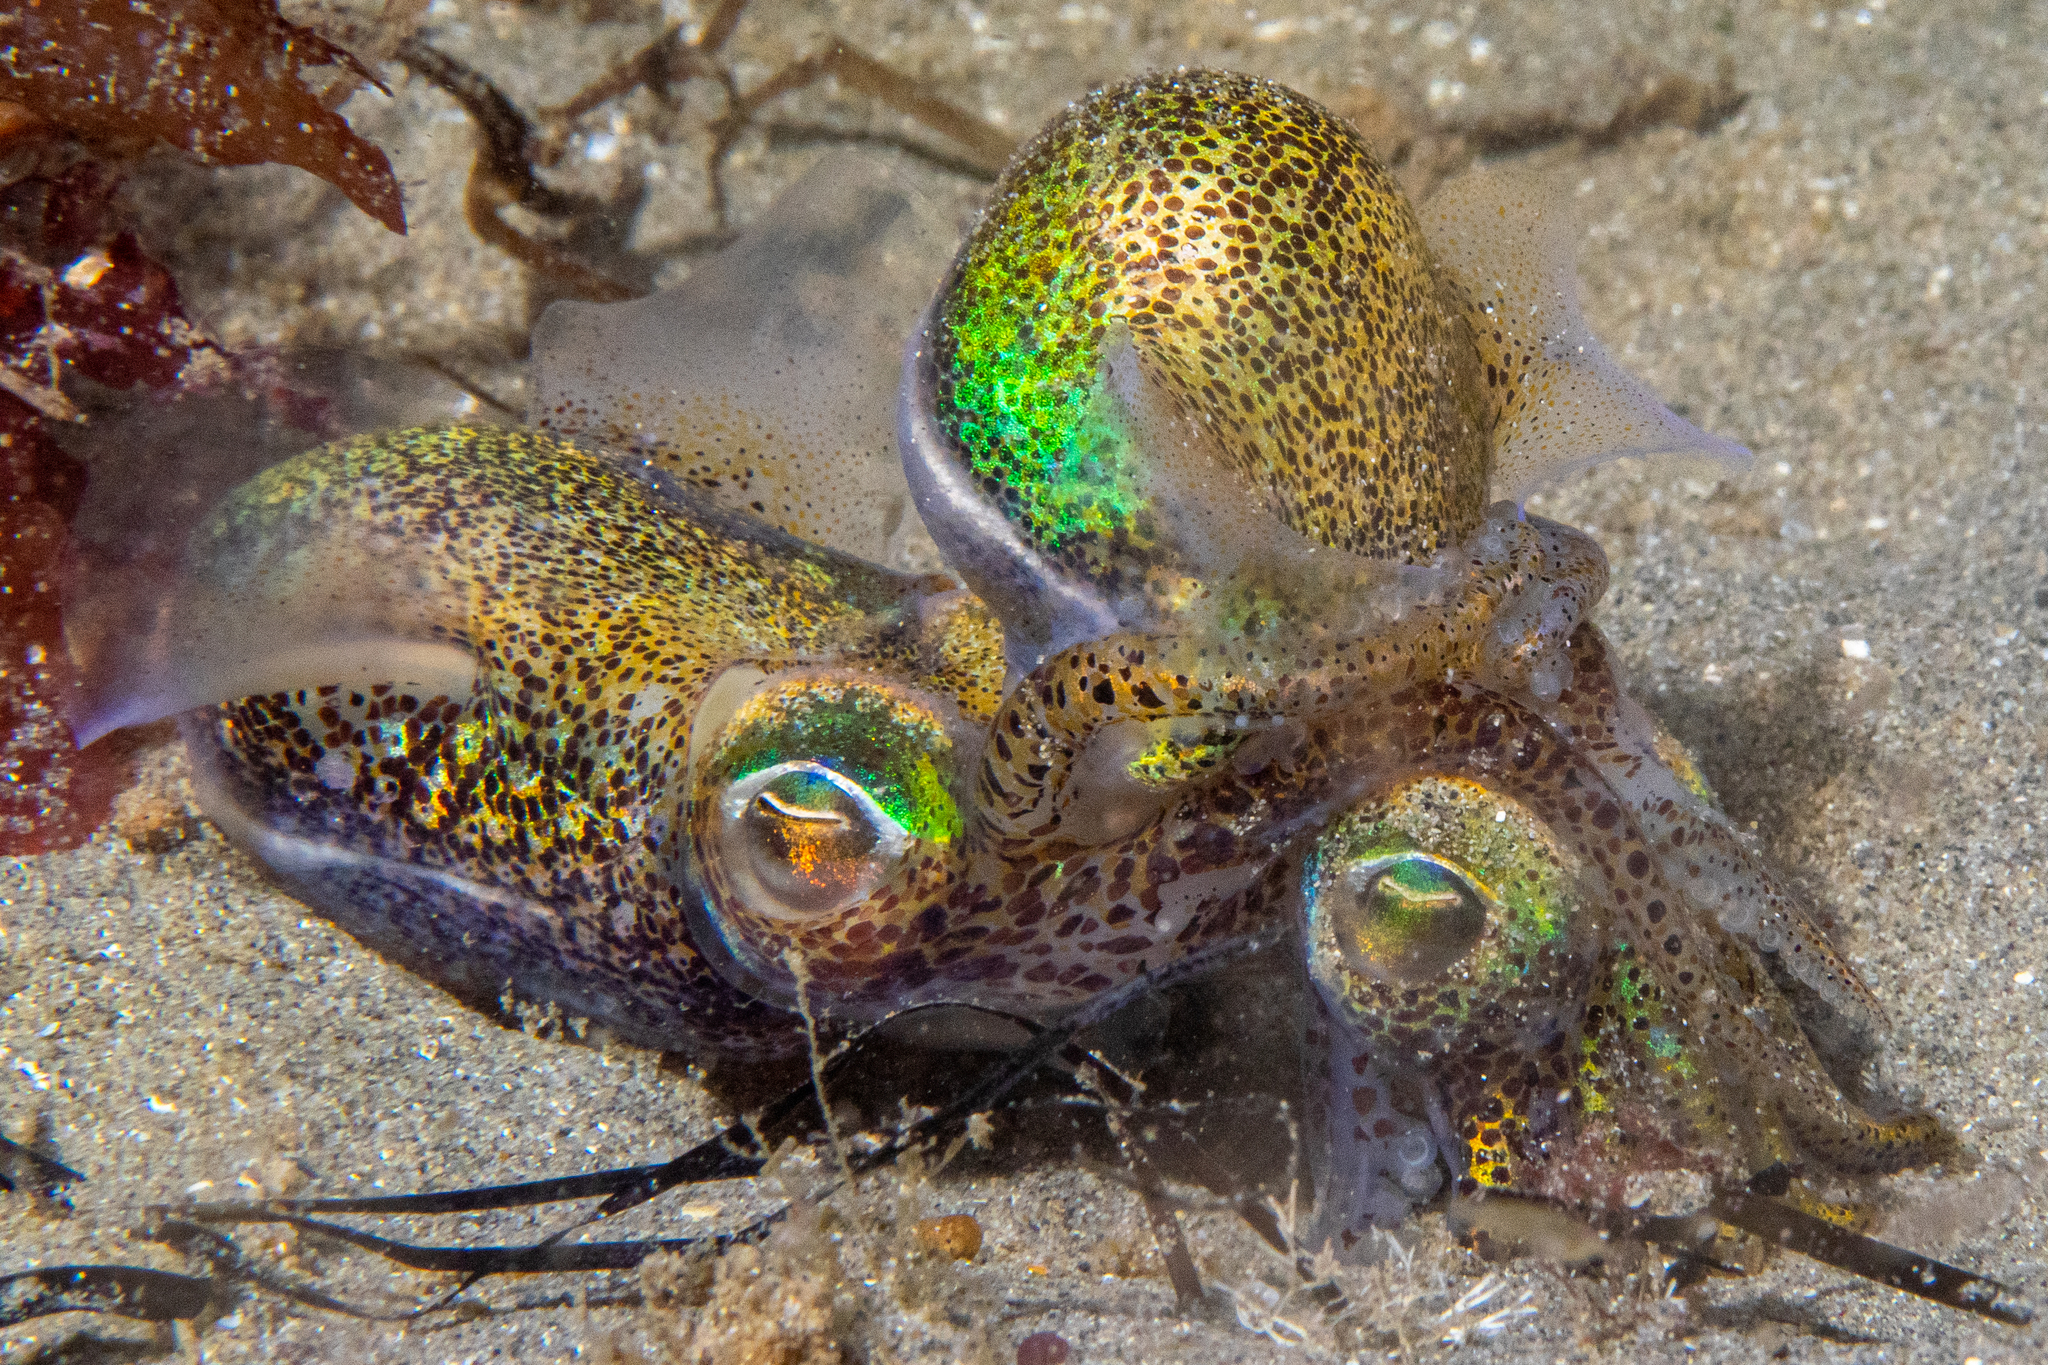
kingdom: Animalia
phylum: Mollusca
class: Cephalopoda
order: Sepiida
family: Sepiolidae
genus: Euprymna
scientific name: Euprymna tasmanica
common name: Southern bobtail squid
